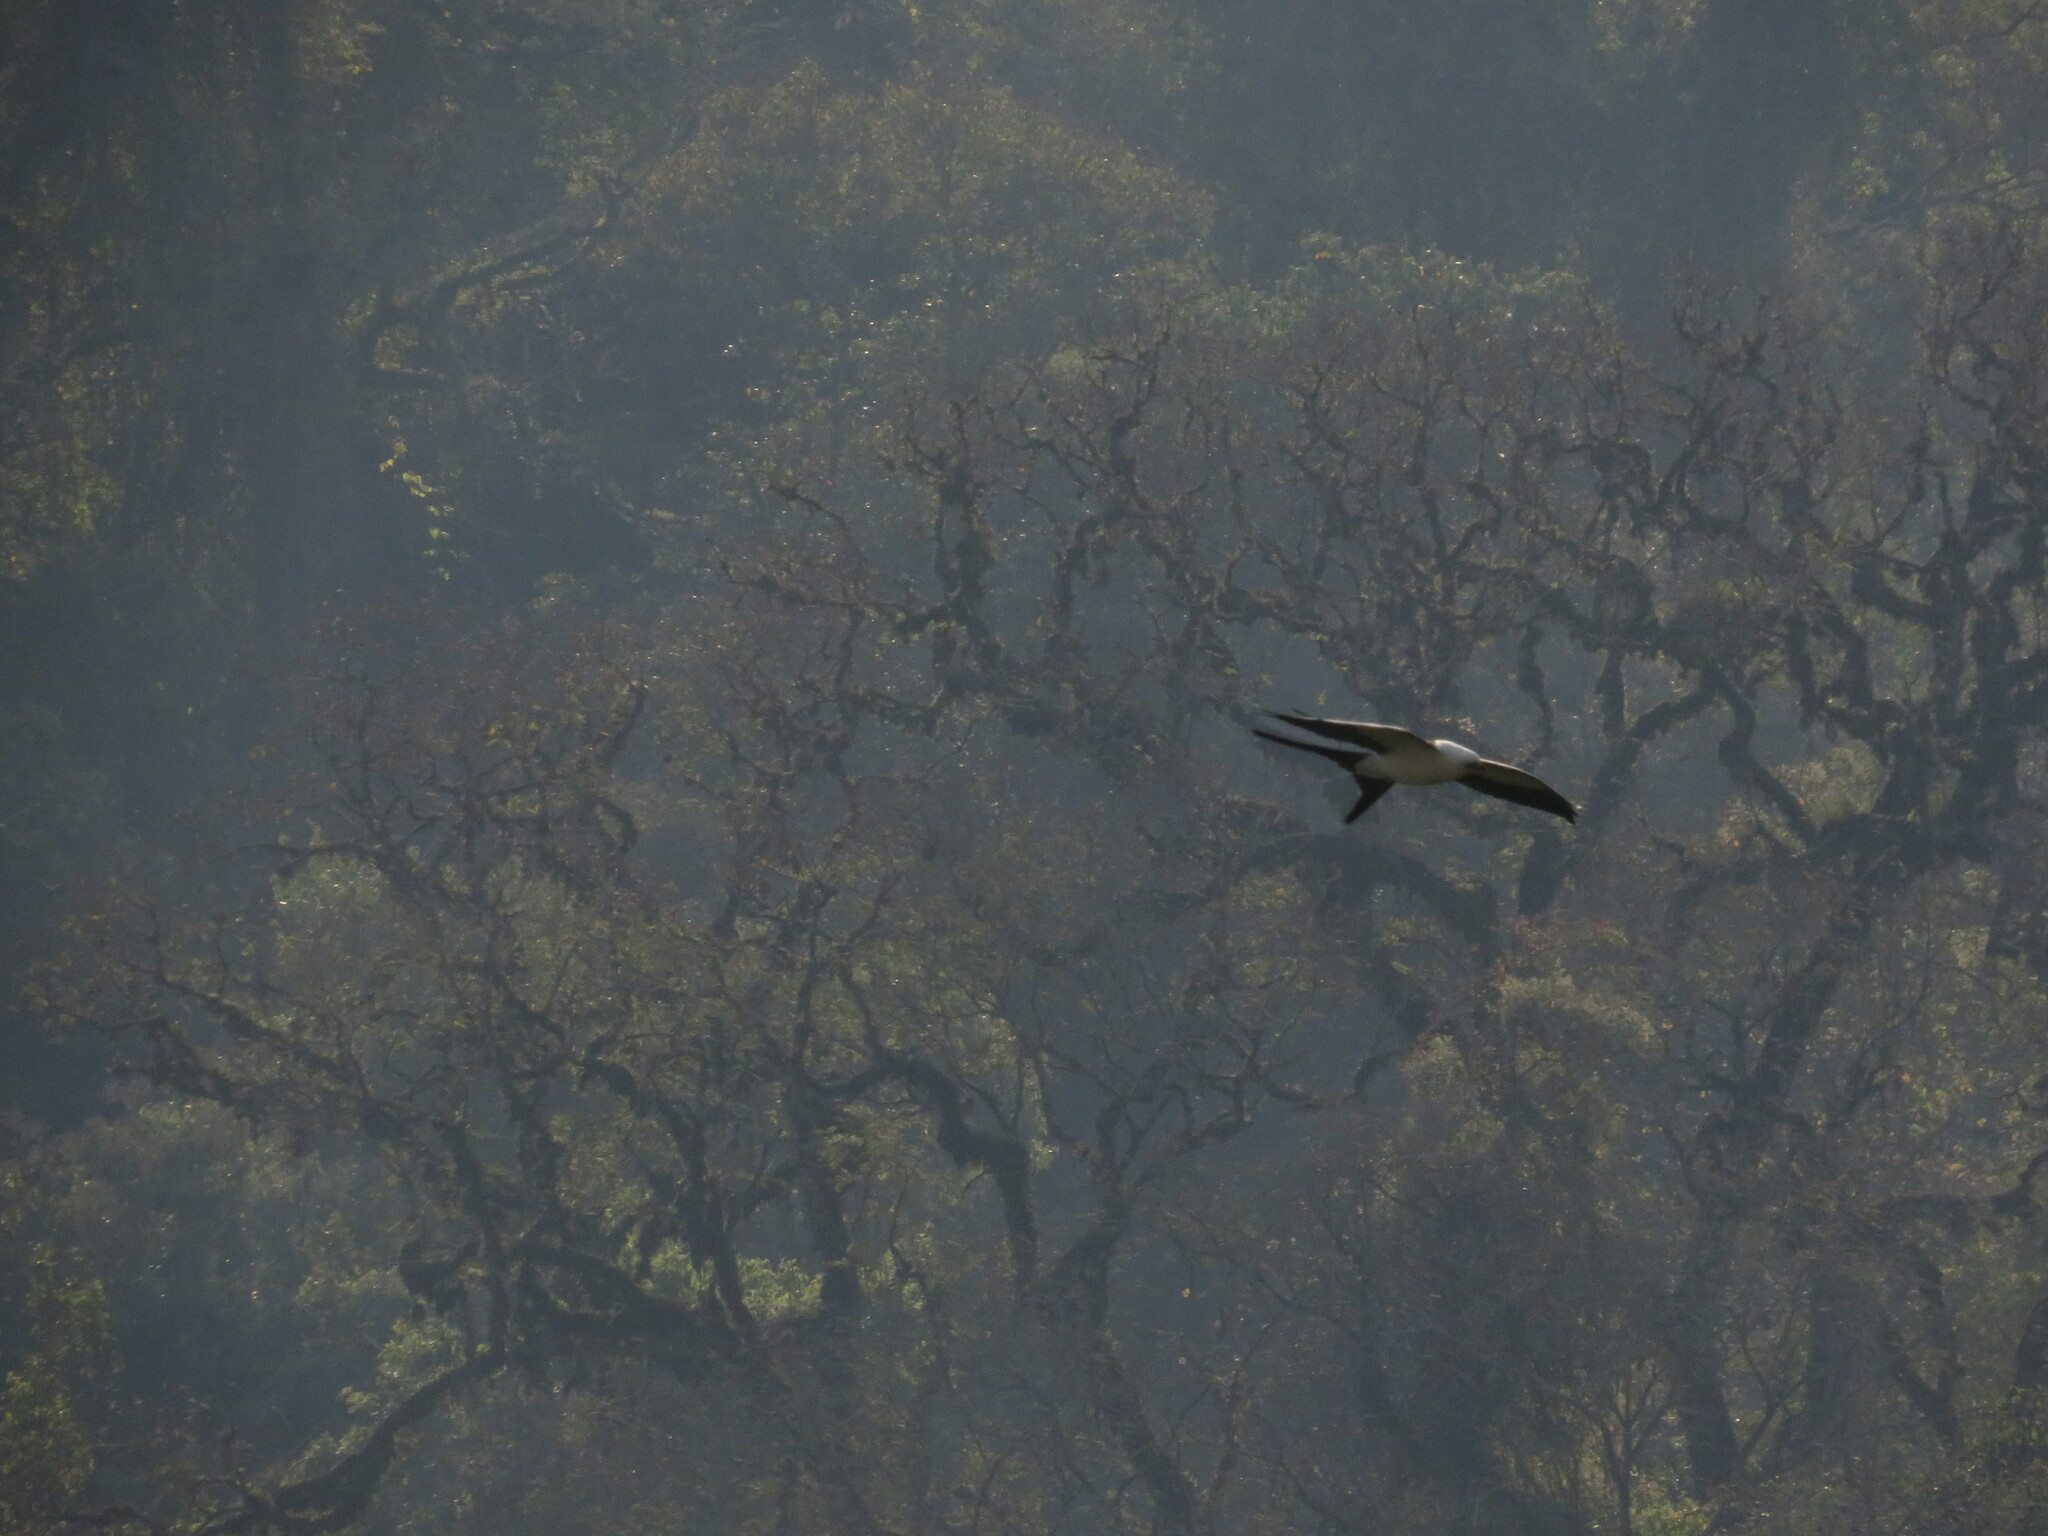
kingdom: Animalia
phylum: Chordata
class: Aves
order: Accipitriformes
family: Accipitridae
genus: Elanoides
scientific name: Elanoides forficatus
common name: Swallow-tailed kite
